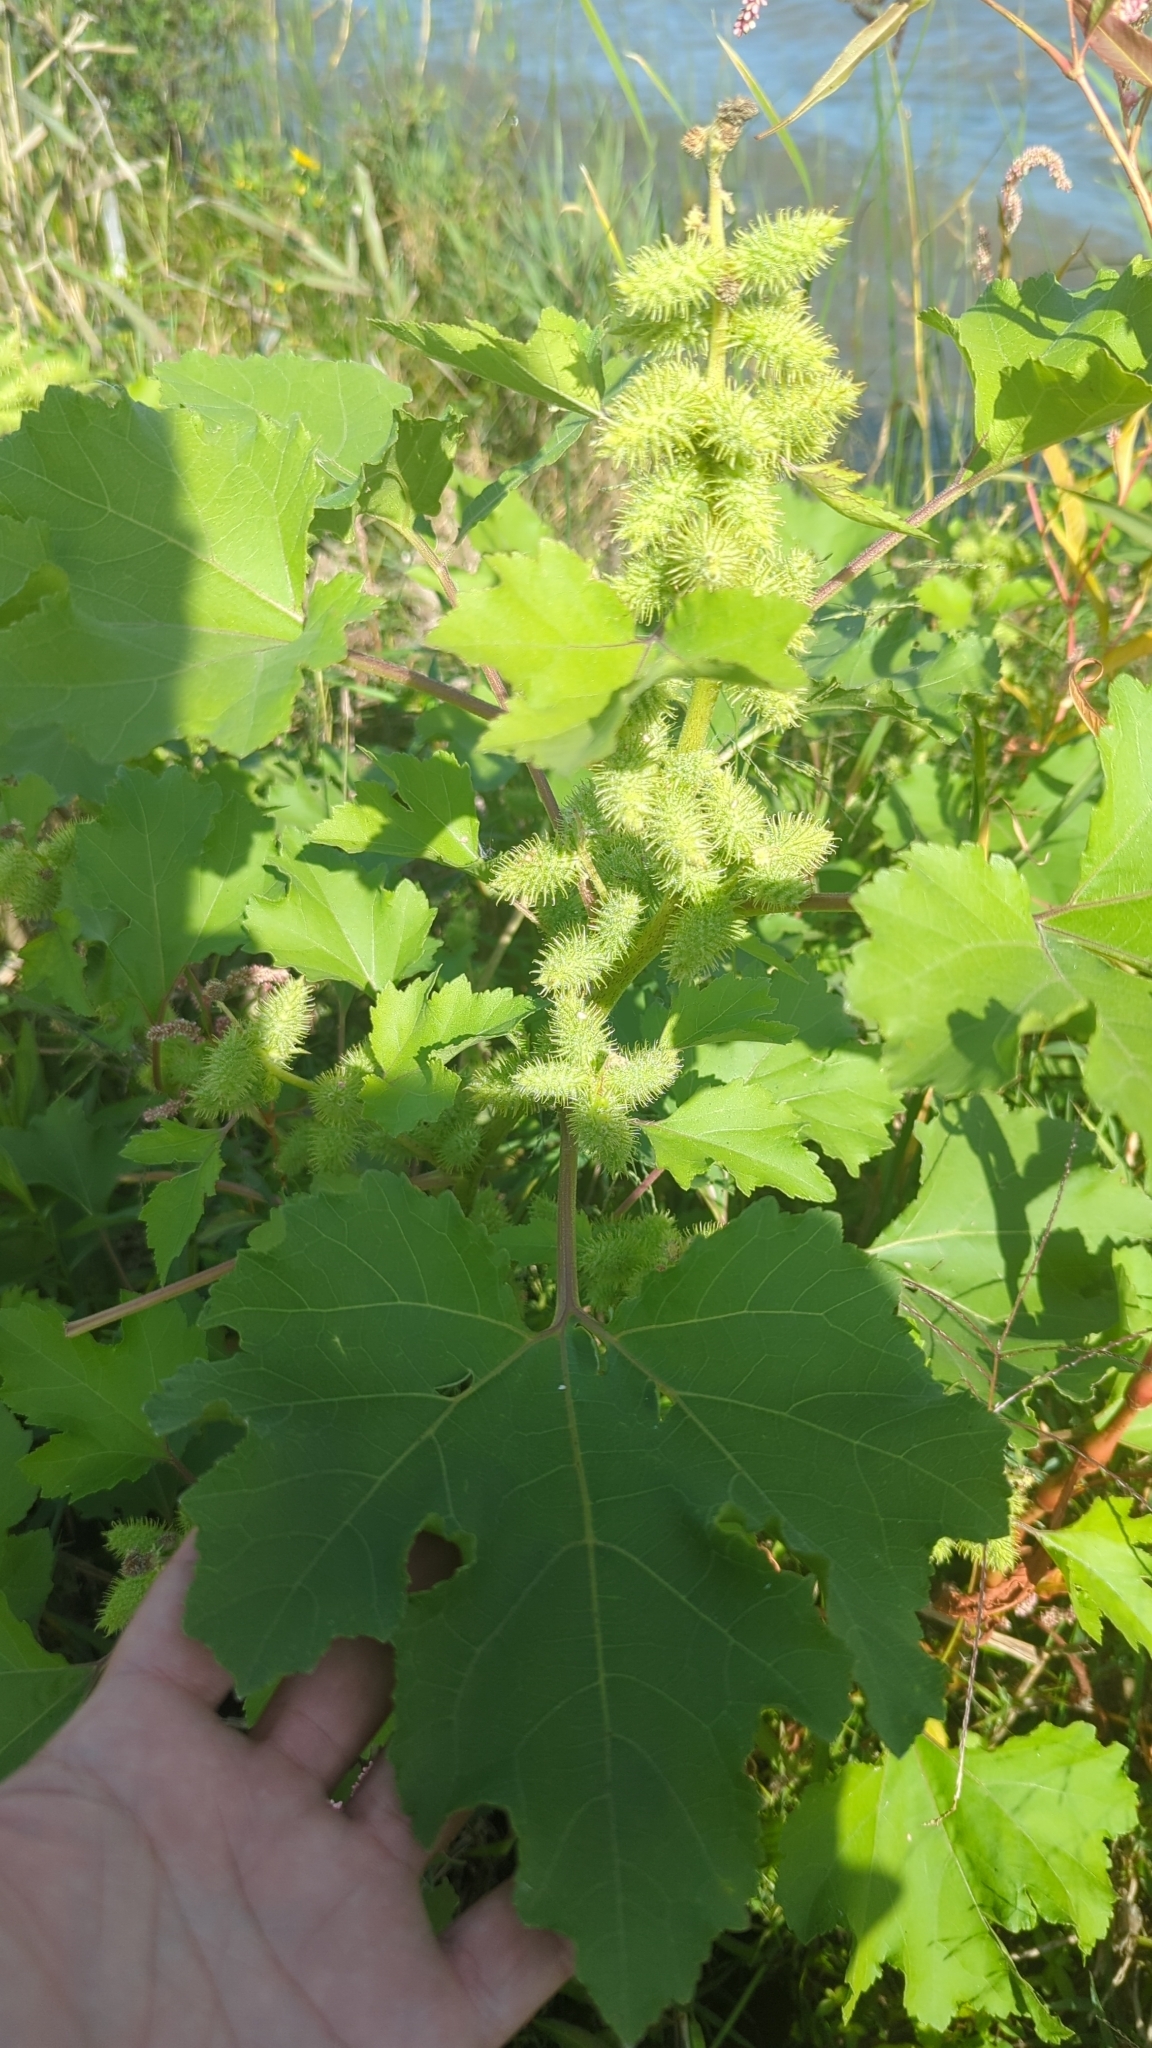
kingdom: Plantae
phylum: Tracheophyta
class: Magnoliopsida
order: Asterales
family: Asteraceae
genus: Xanthium
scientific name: Xanthium strumarium
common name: Rough cocklebur
